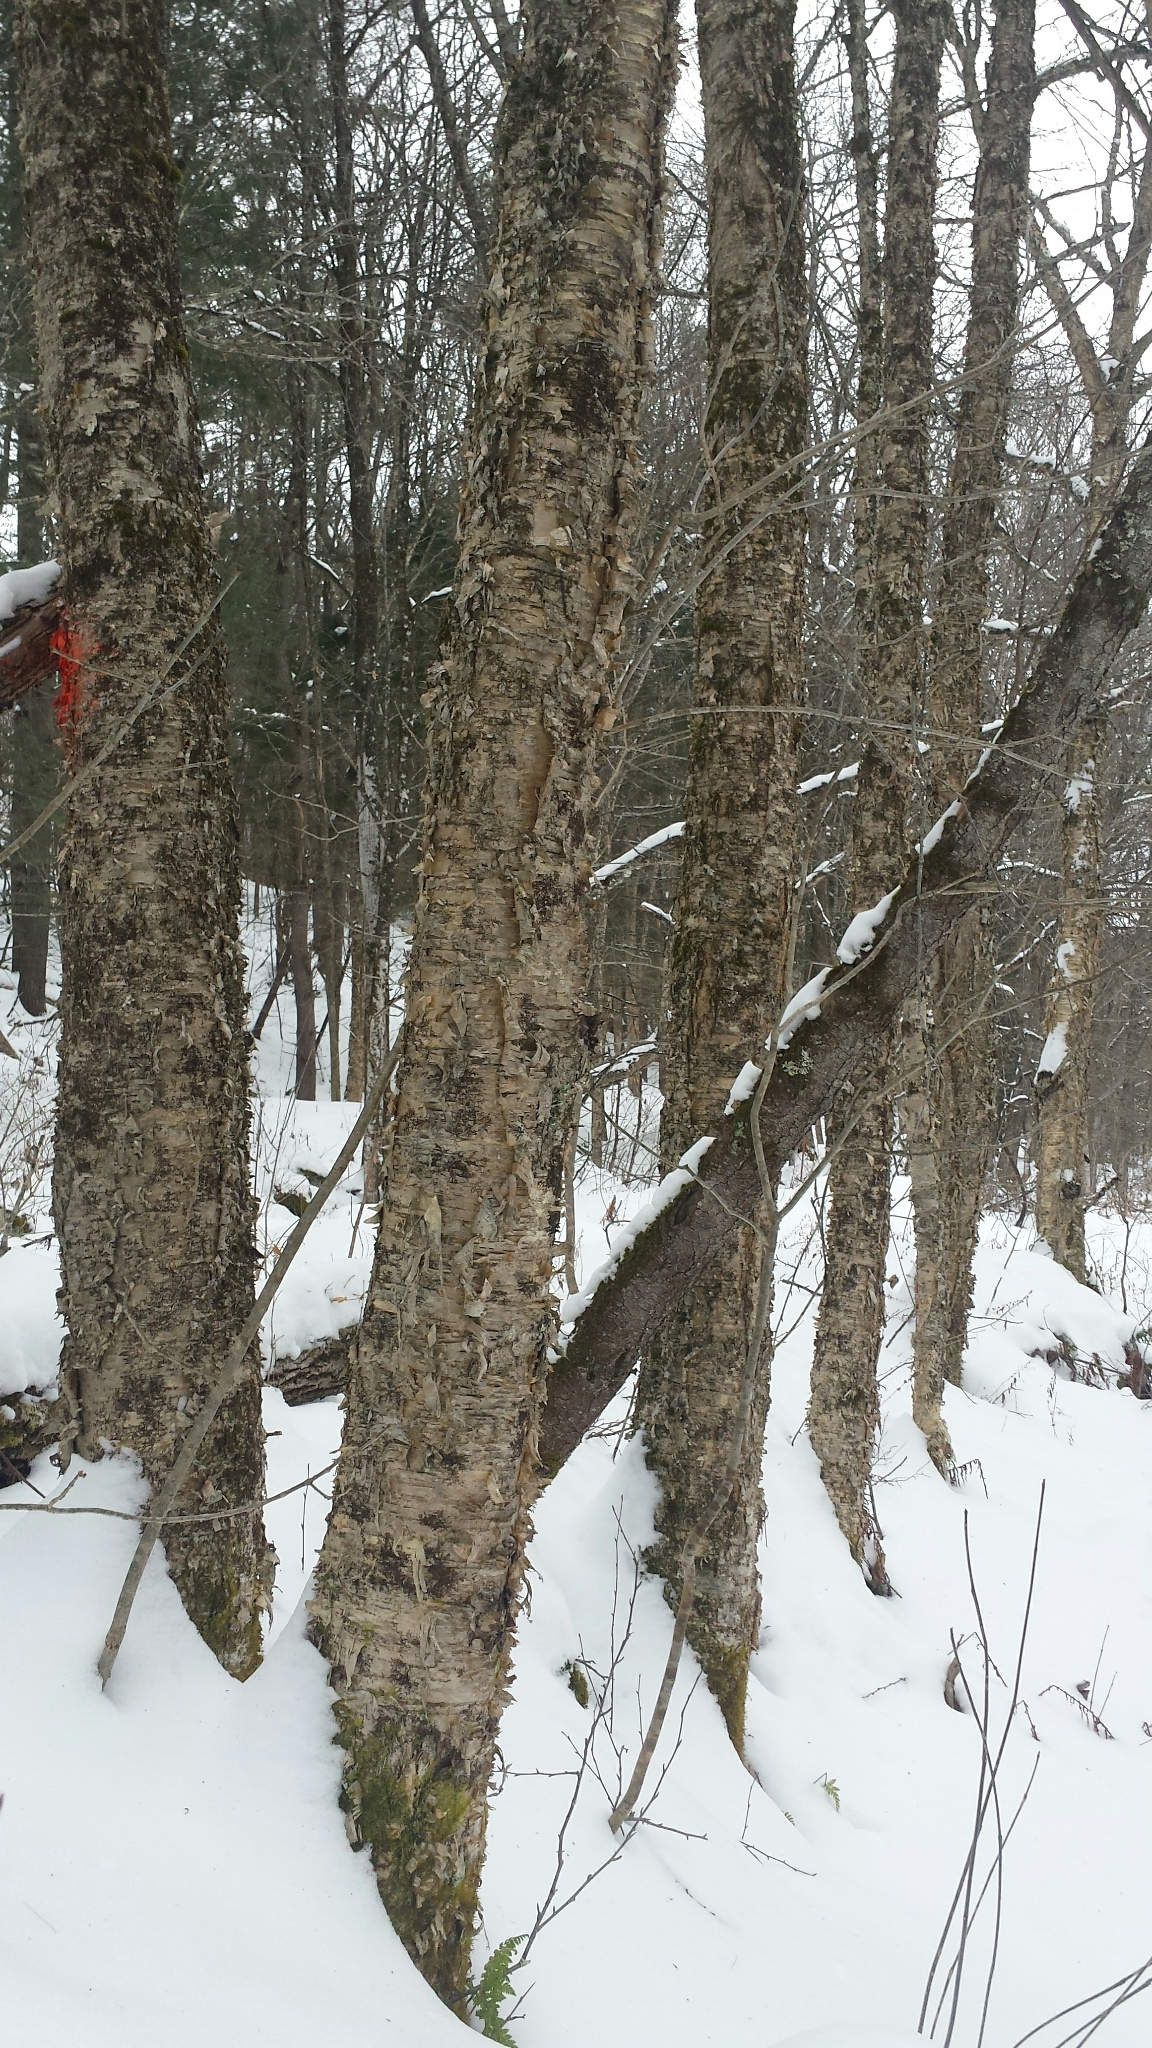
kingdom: Plantae
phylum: Tracheophyta
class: Magnoliopsida
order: Fagales
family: Betulaceae
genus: Betula
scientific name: Betula alleghaniensis
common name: Yellow birch
